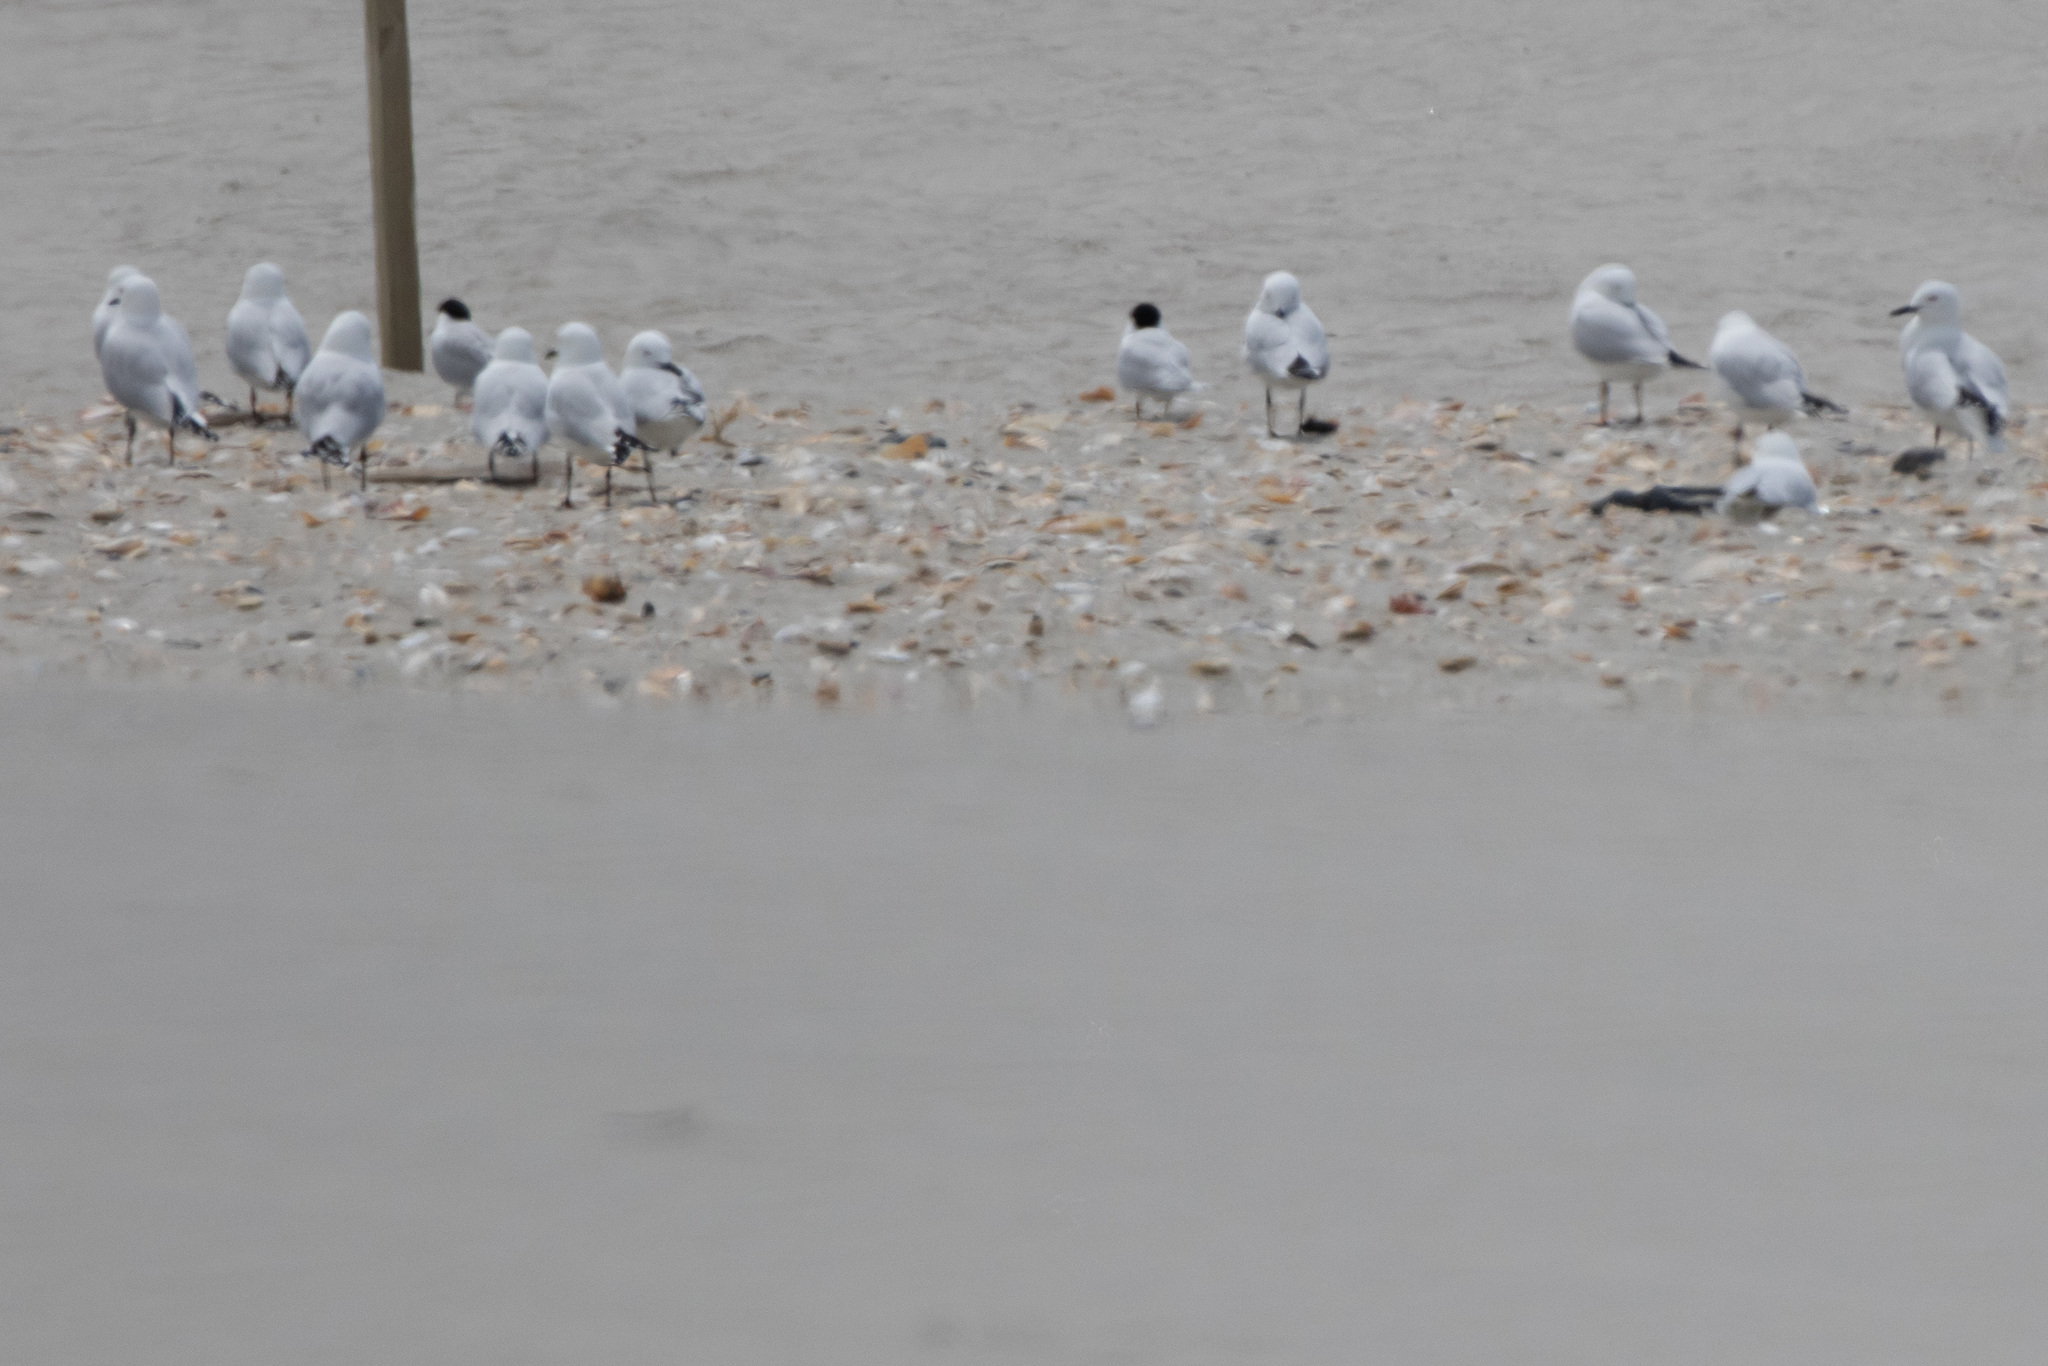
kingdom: Animalia
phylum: Chordata
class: Aves
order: Charadriiformes
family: Laridae
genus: Chroicocephalus
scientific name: Chroicocephalus bulleri
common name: Black-billed gull
